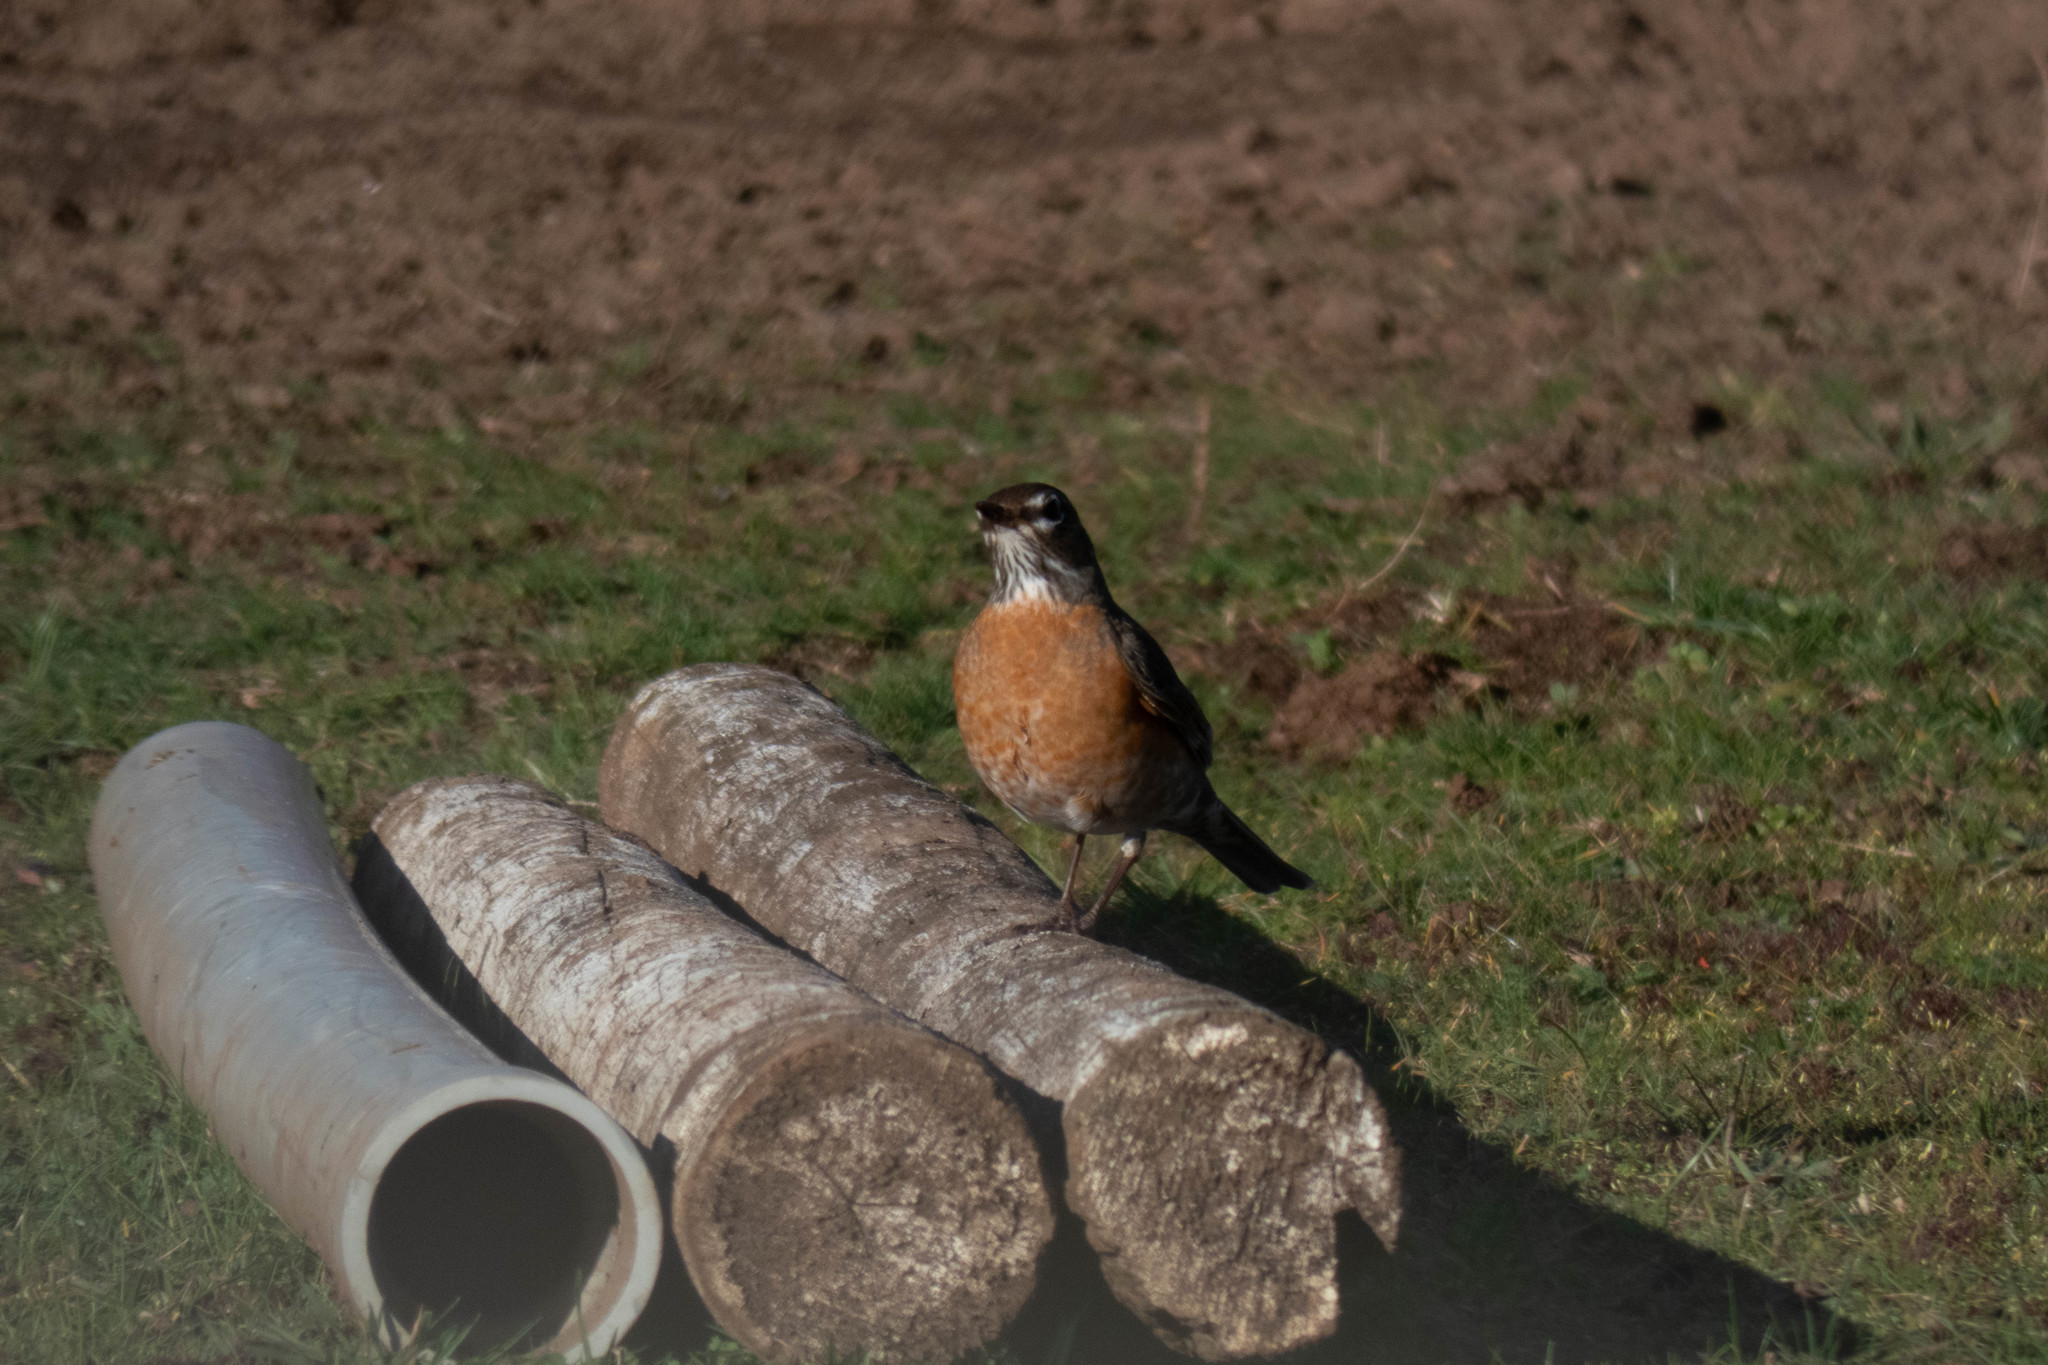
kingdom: Animalia
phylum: Chordata
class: Aves
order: Passeriformes
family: Turdidae
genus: Turdus
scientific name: Turdus migratorius
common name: American robin
